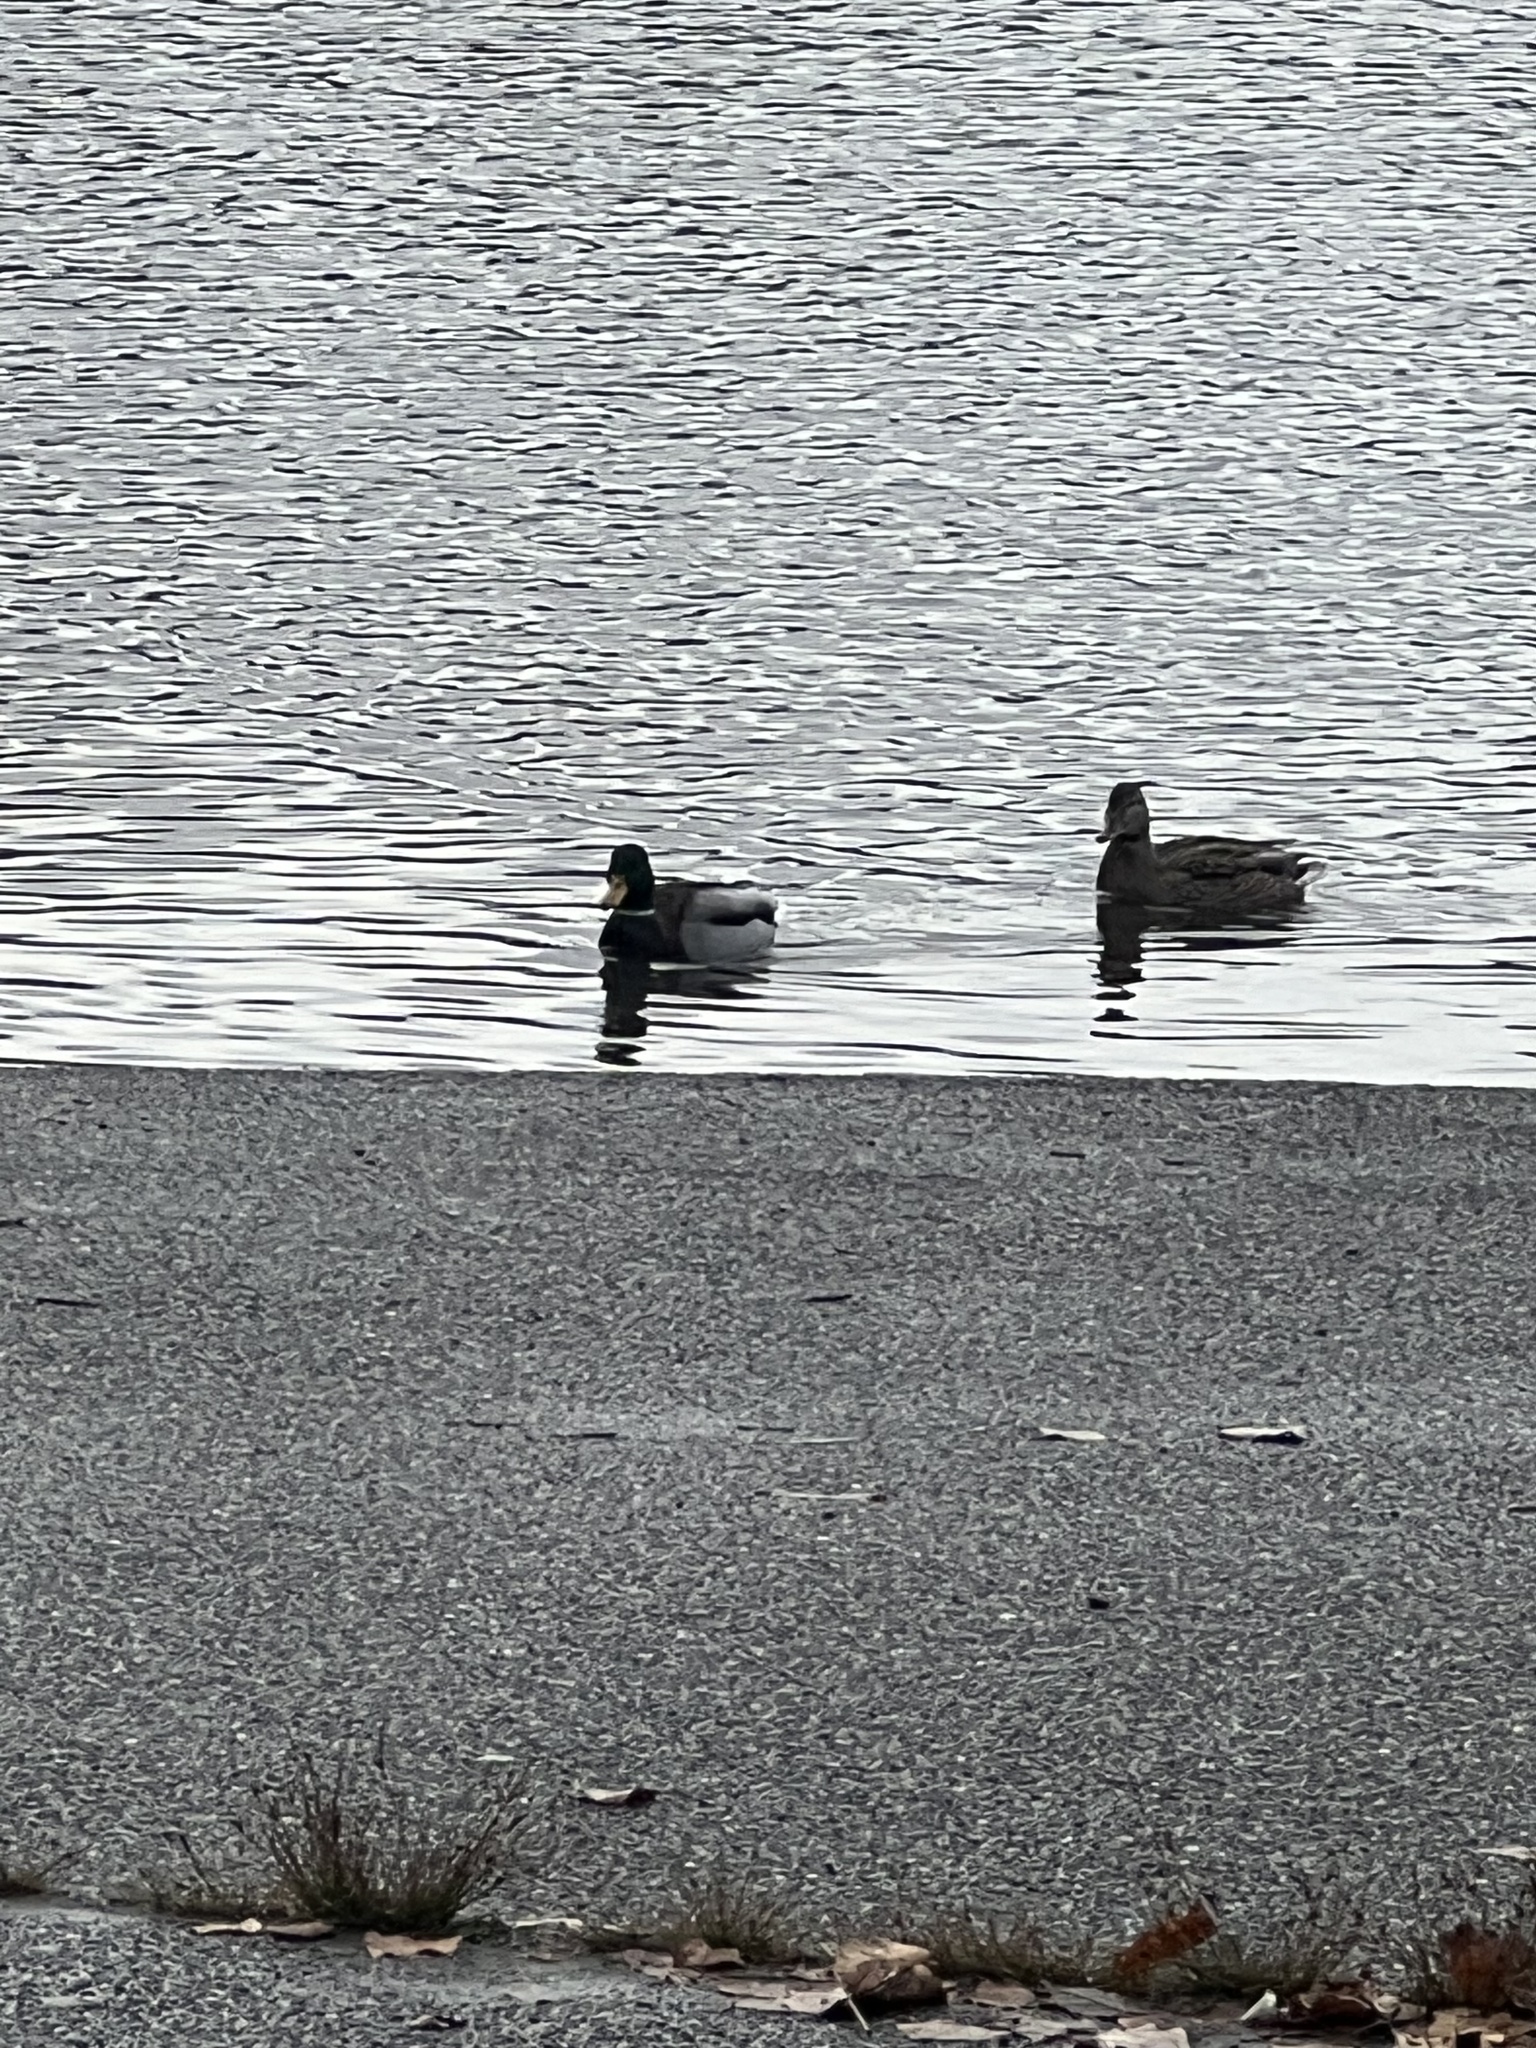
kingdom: Animalia
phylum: Chordata
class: Aves
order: Anseriformes
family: Anatidae
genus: Anas
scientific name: Anas platyrhynchos
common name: Mallard
